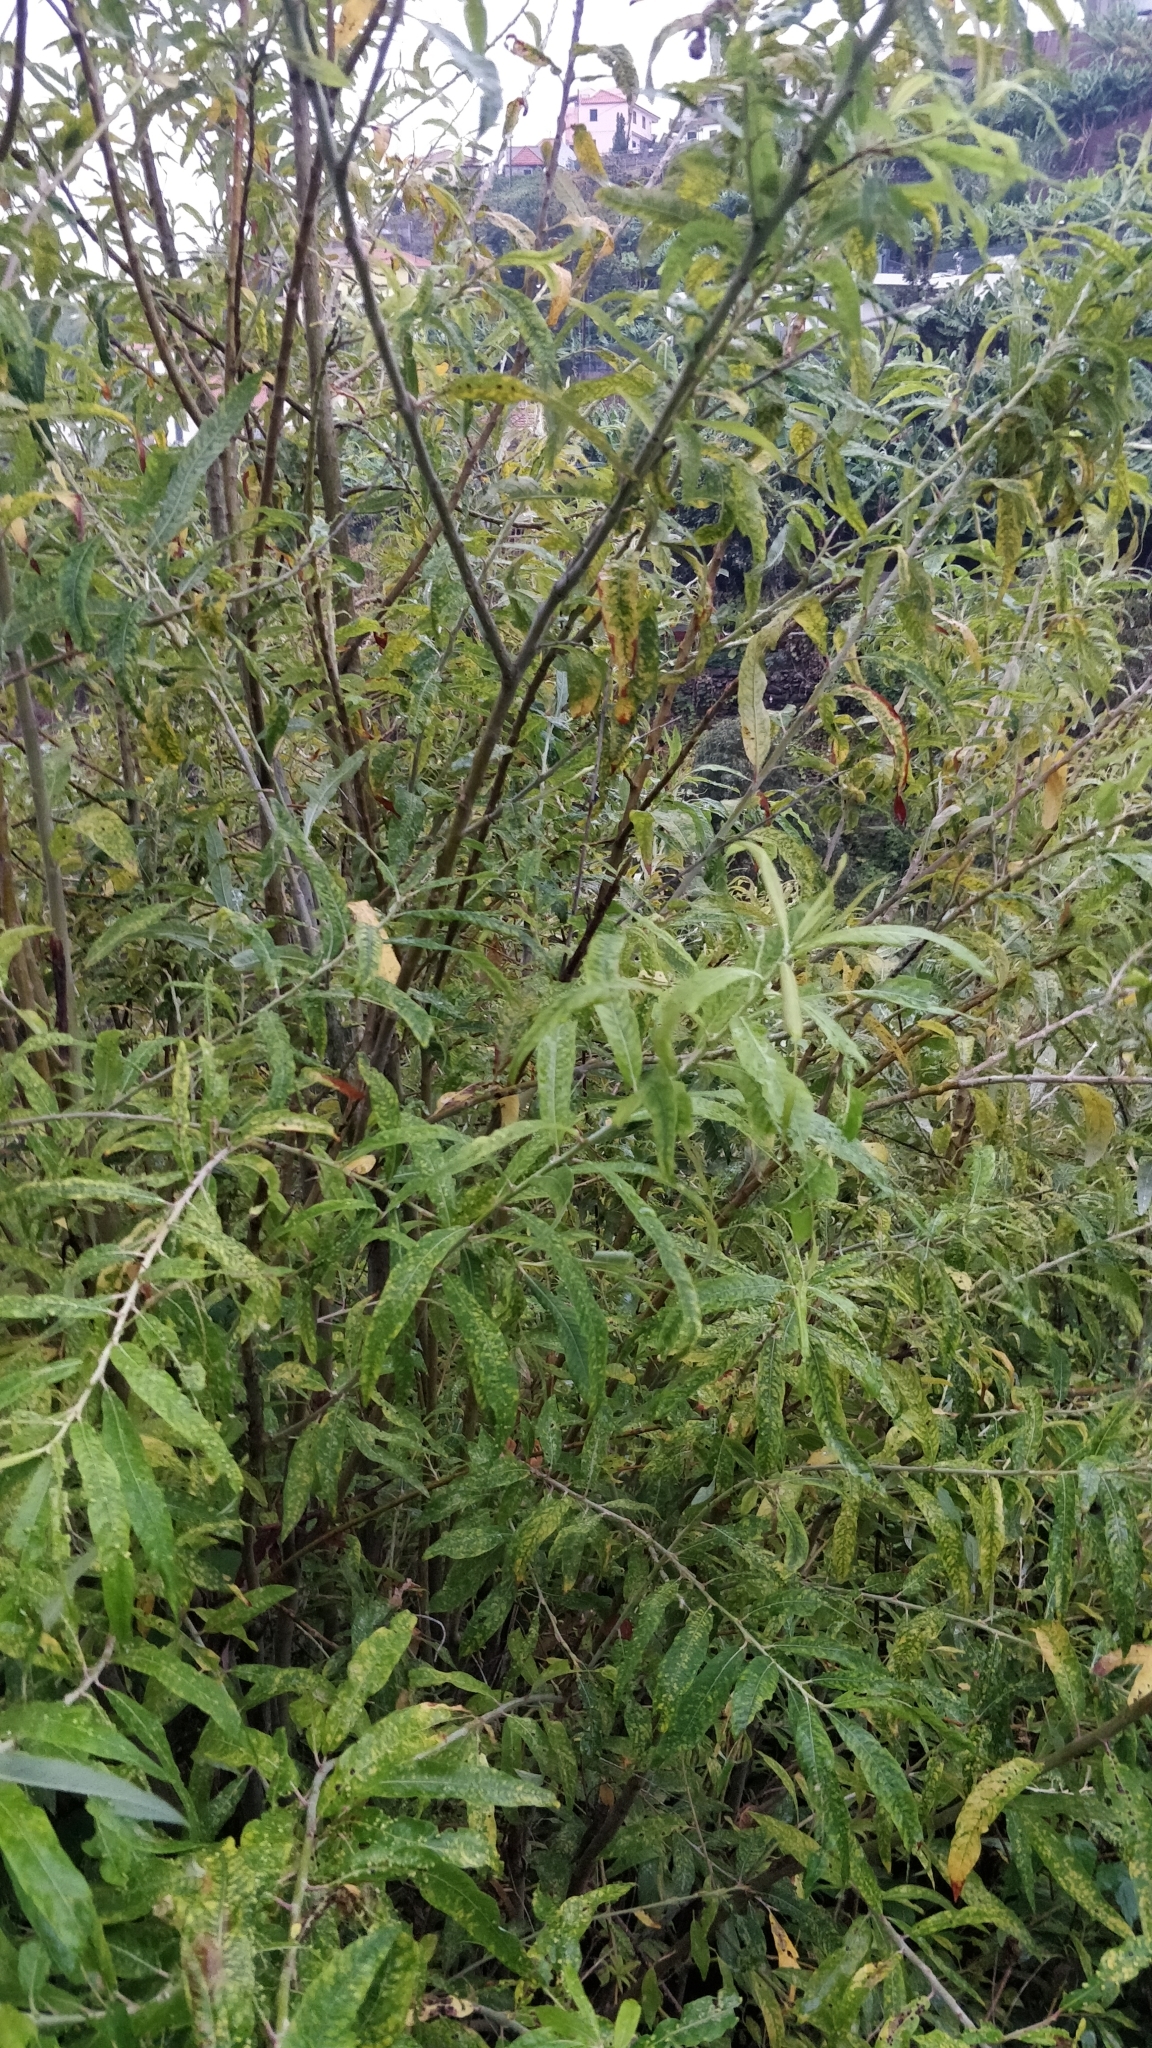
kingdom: Plantae
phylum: Tracheophyta
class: Magnoliopsida
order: Malpighiales
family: Salicaceae
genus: Salix
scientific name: Salix canariensis
